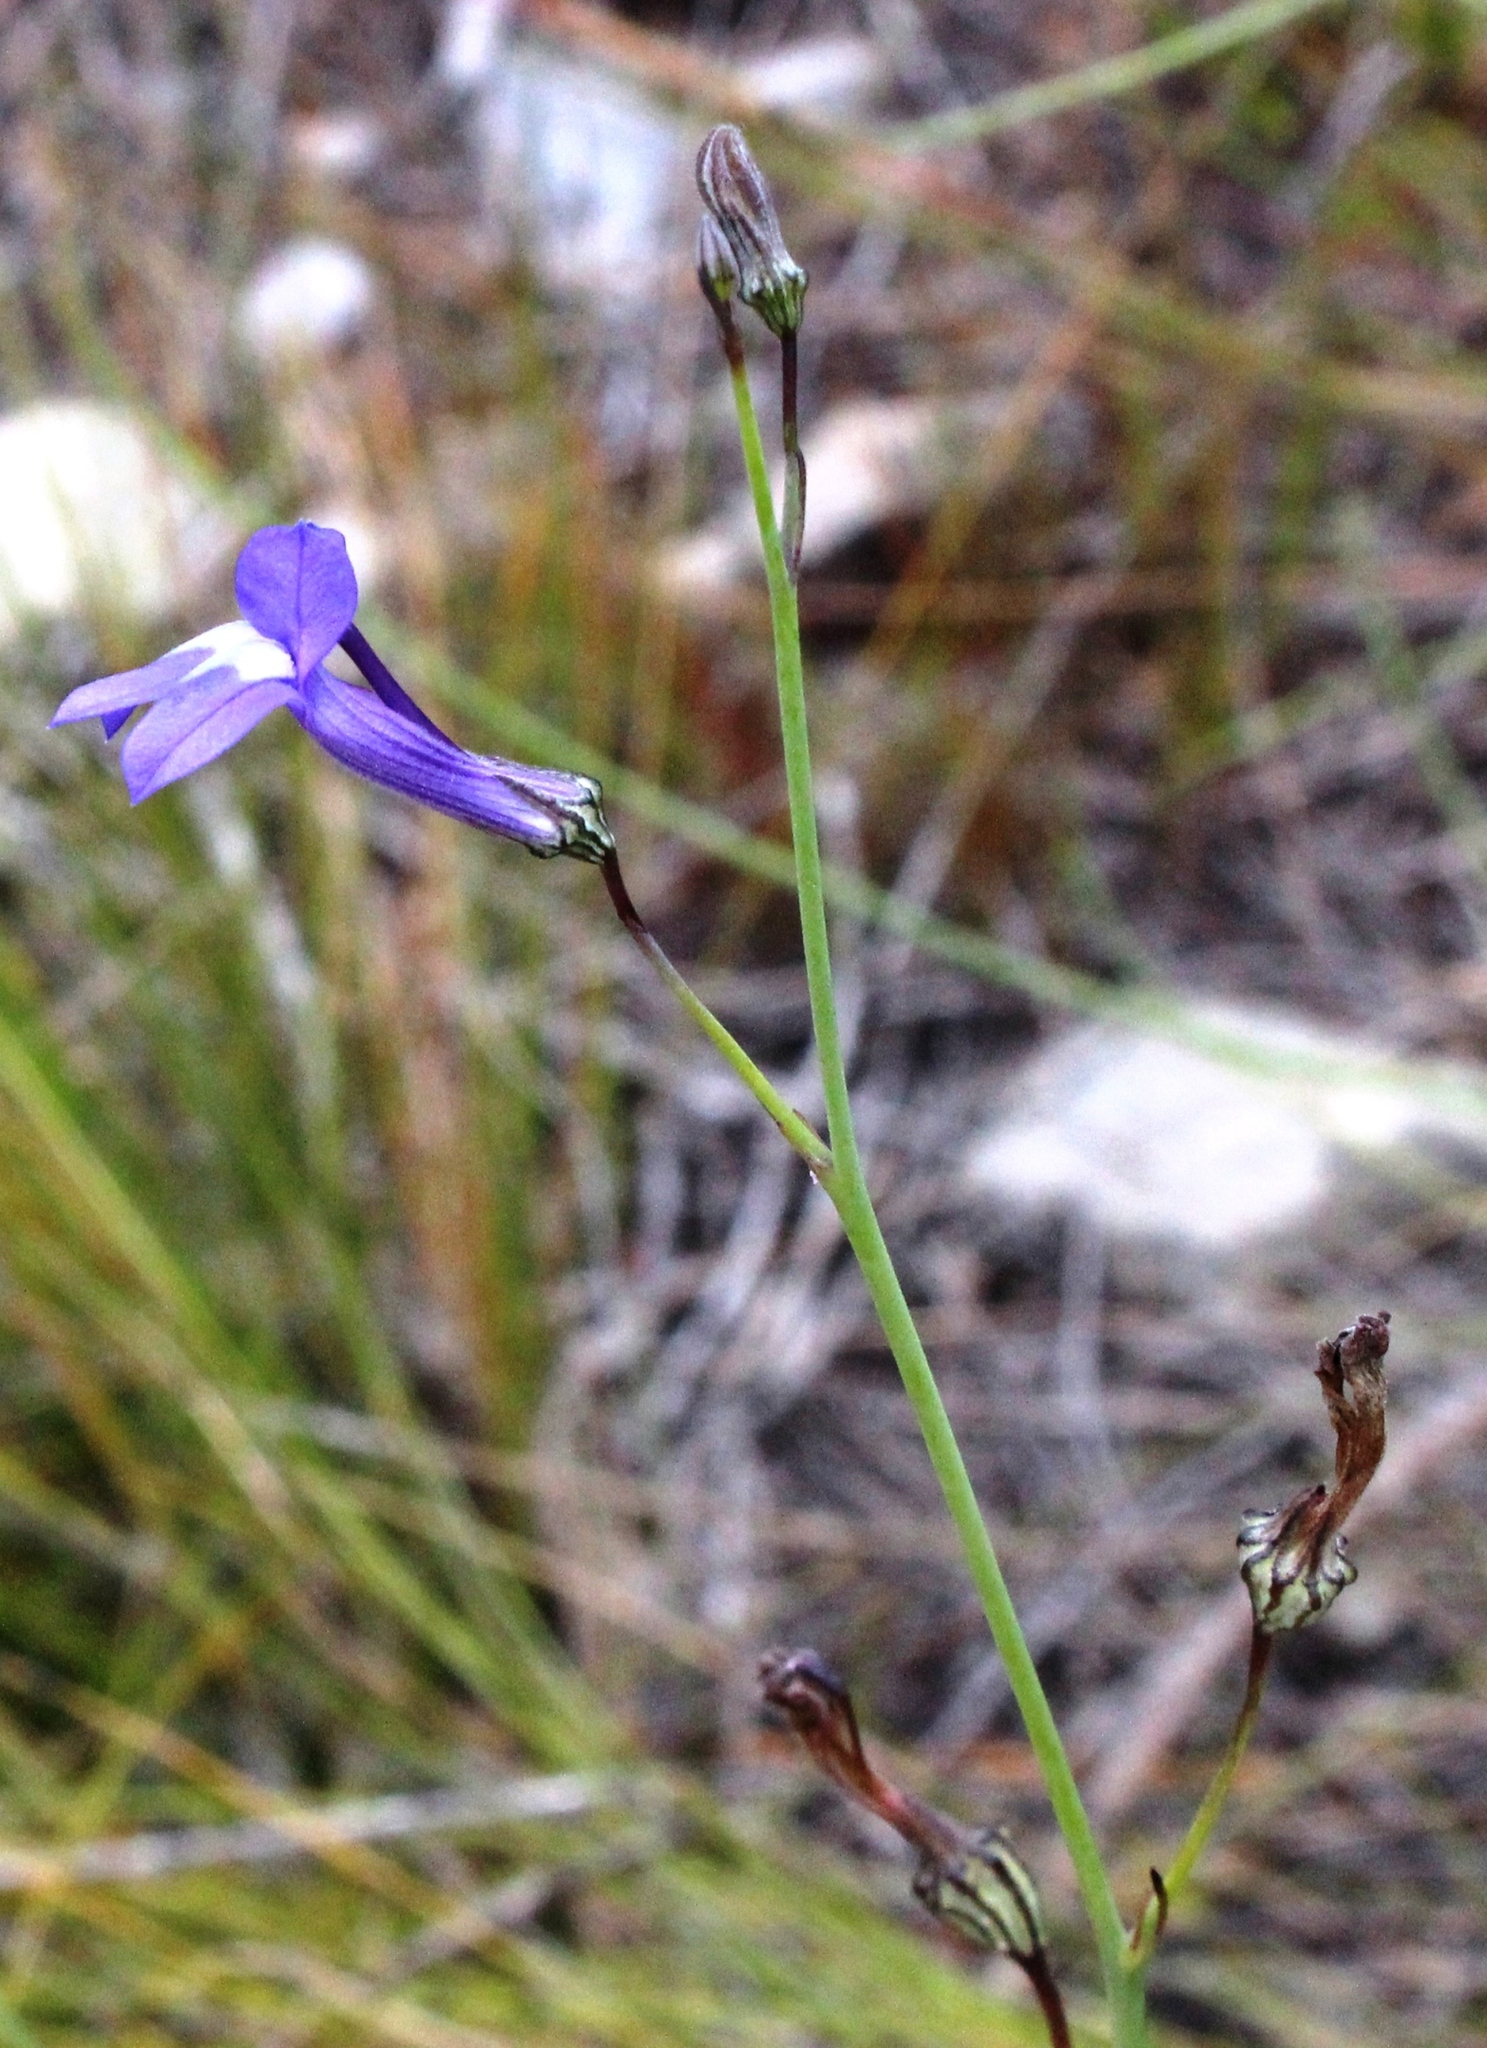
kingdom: Plantae
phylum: Tracheophyta
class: Magnoliopsida
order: Asterales
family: Campanulaceae
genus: Lobelia
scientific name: Lobelia linearis
